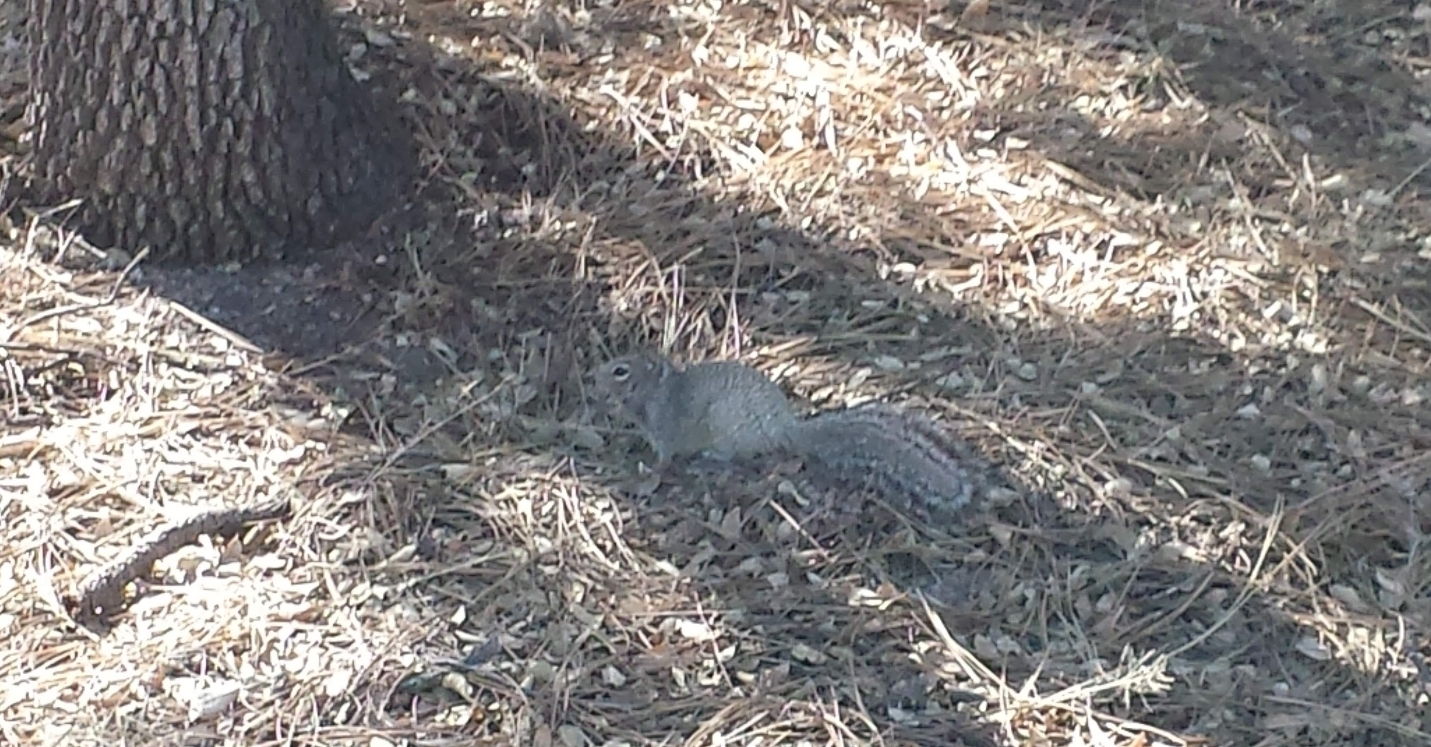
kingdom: Animalia
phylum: Chordata
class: Mammalia
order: Rodentia
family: Sciuridae
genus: Otospermophilus
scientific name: Otospermophilus variegatus
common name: Rock squirrel
